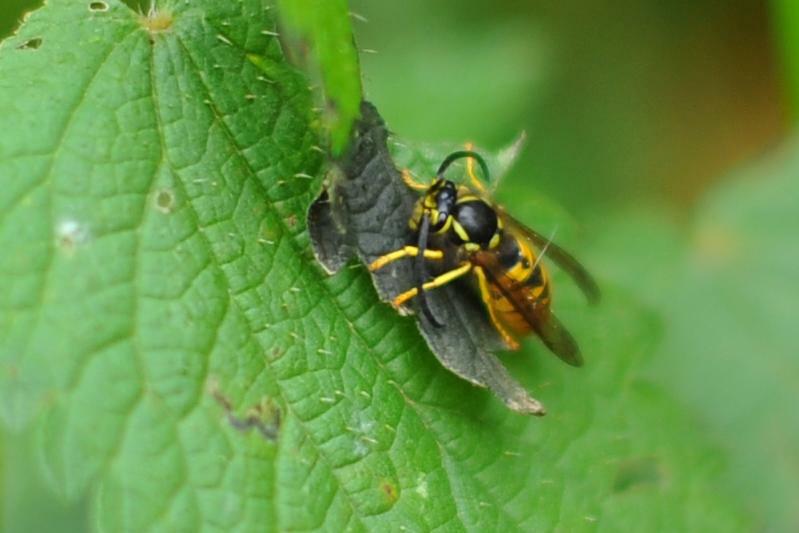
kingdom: Animalia
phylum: Arthropoda
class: Insecta
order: Hymenoptera
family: Vespidae
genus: Vespula
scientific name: Vespula germanica
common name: German wasp
